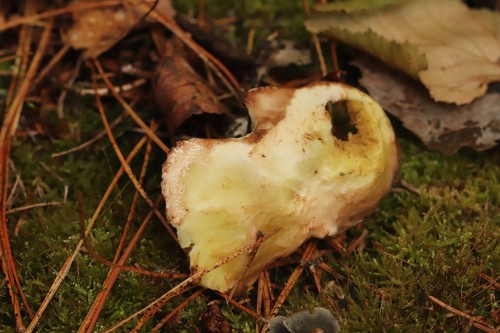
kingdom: Fungi
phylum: Basidiomycota
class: Agaricomycetes
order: Boletales
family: Suillaceae
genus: Suillus
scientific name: Suillus
